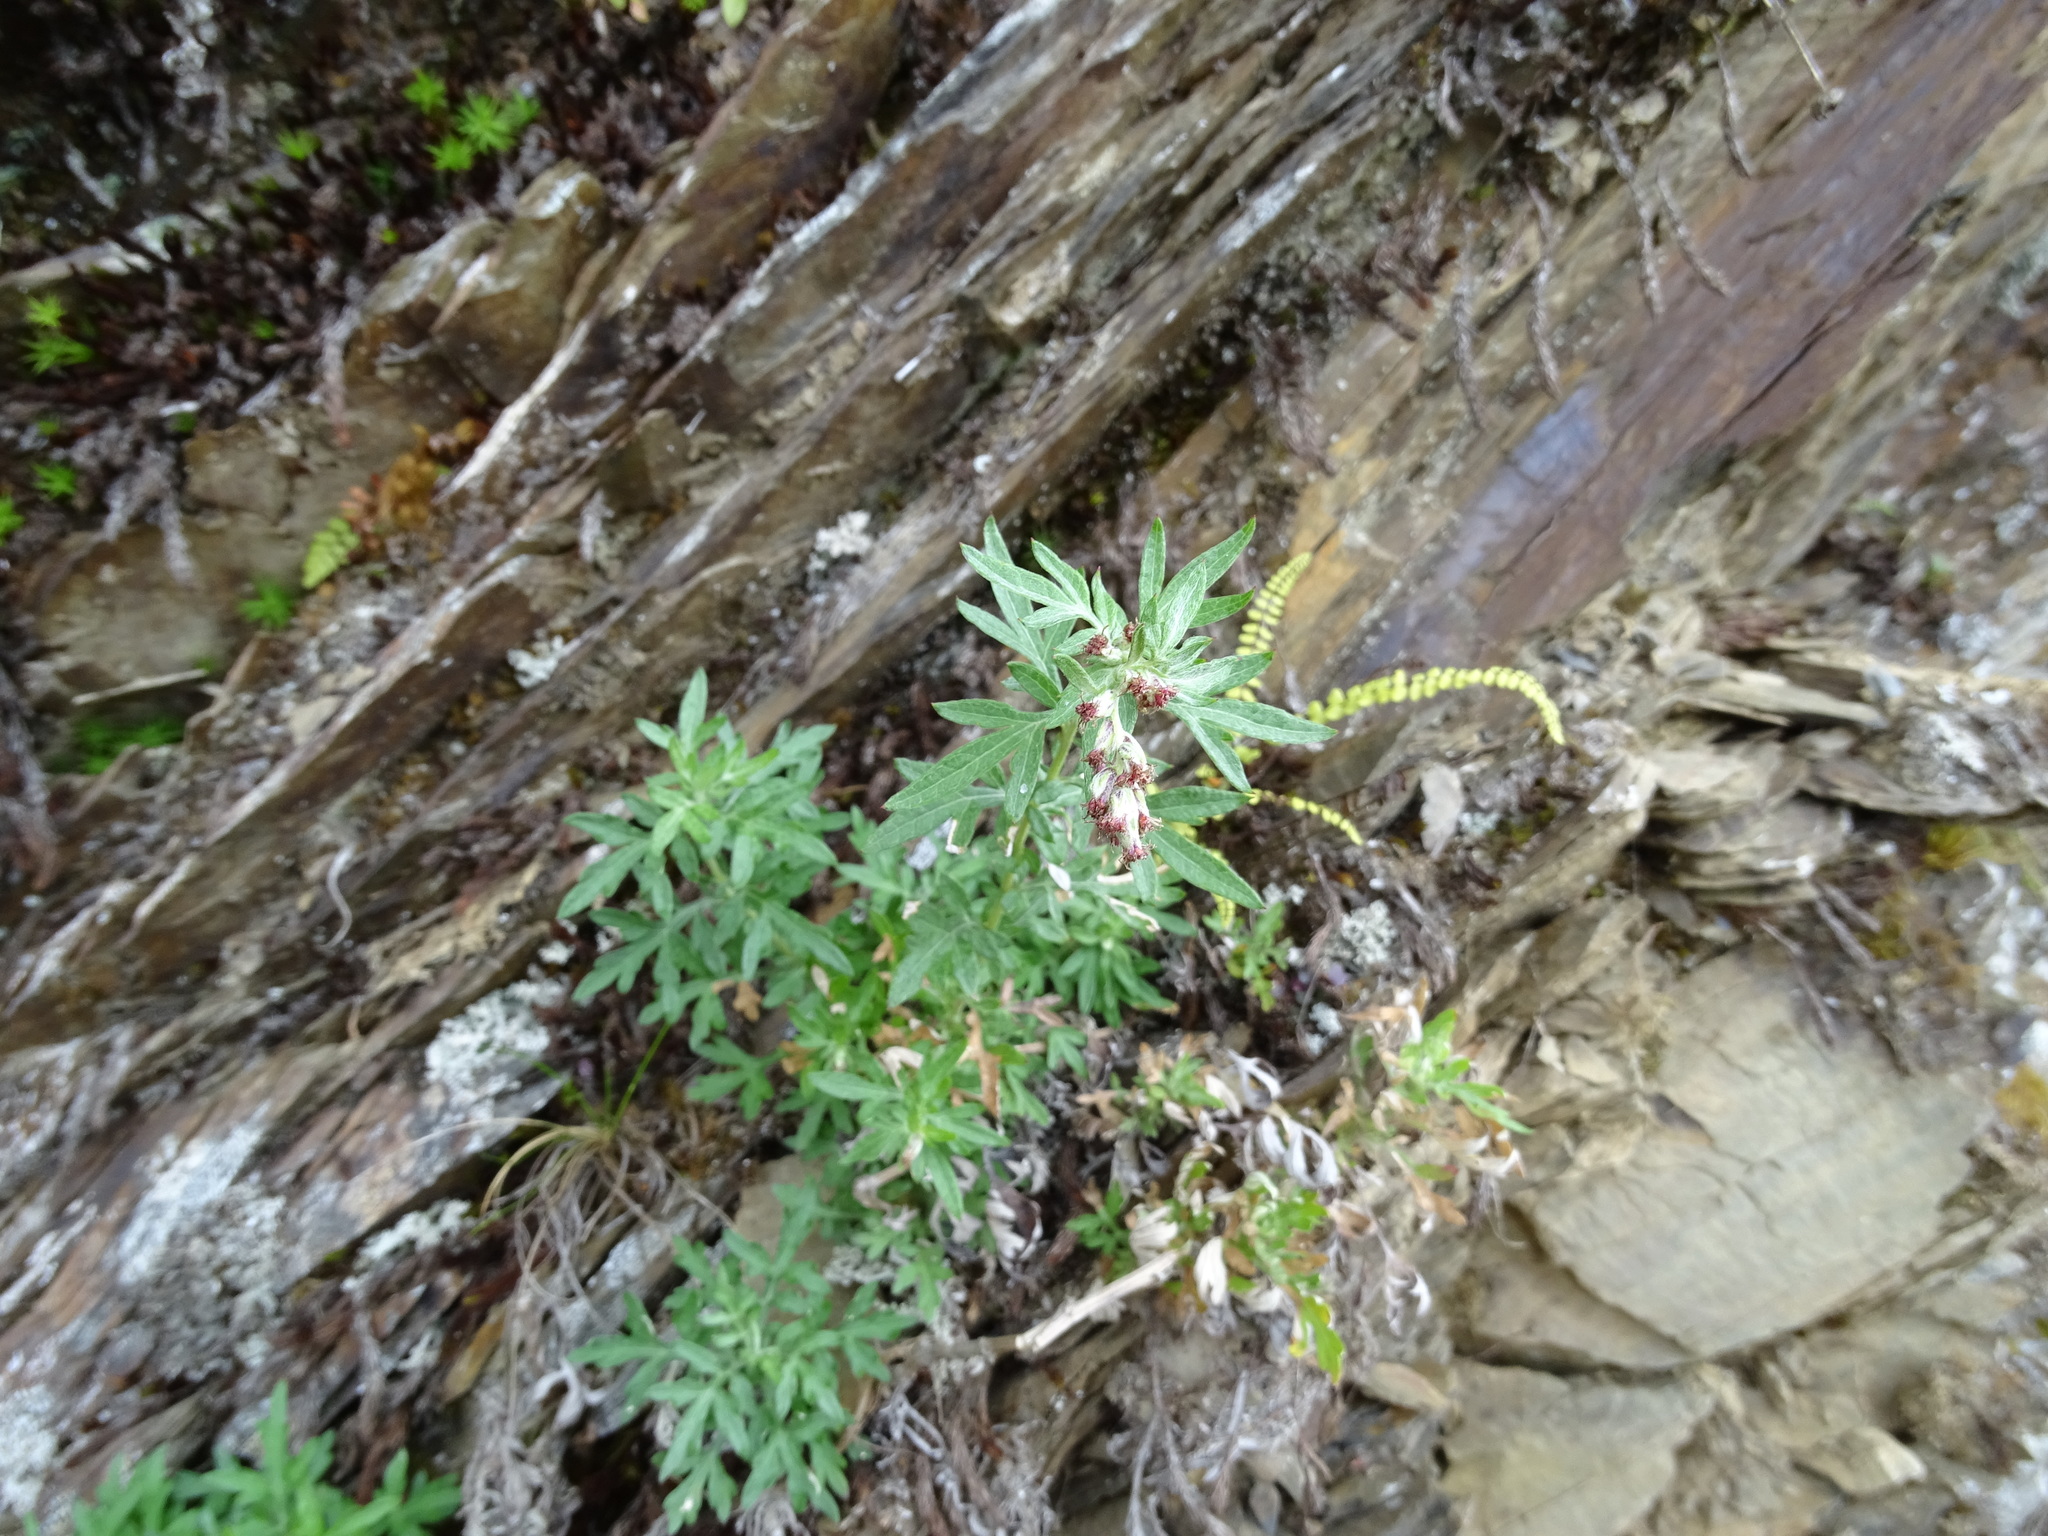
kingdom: Plantae
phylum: Tracheophyta
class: Magnoliopsida
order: Asterales
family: Asteraceae
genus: Artemisia
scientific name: Artemisia kawakamii
